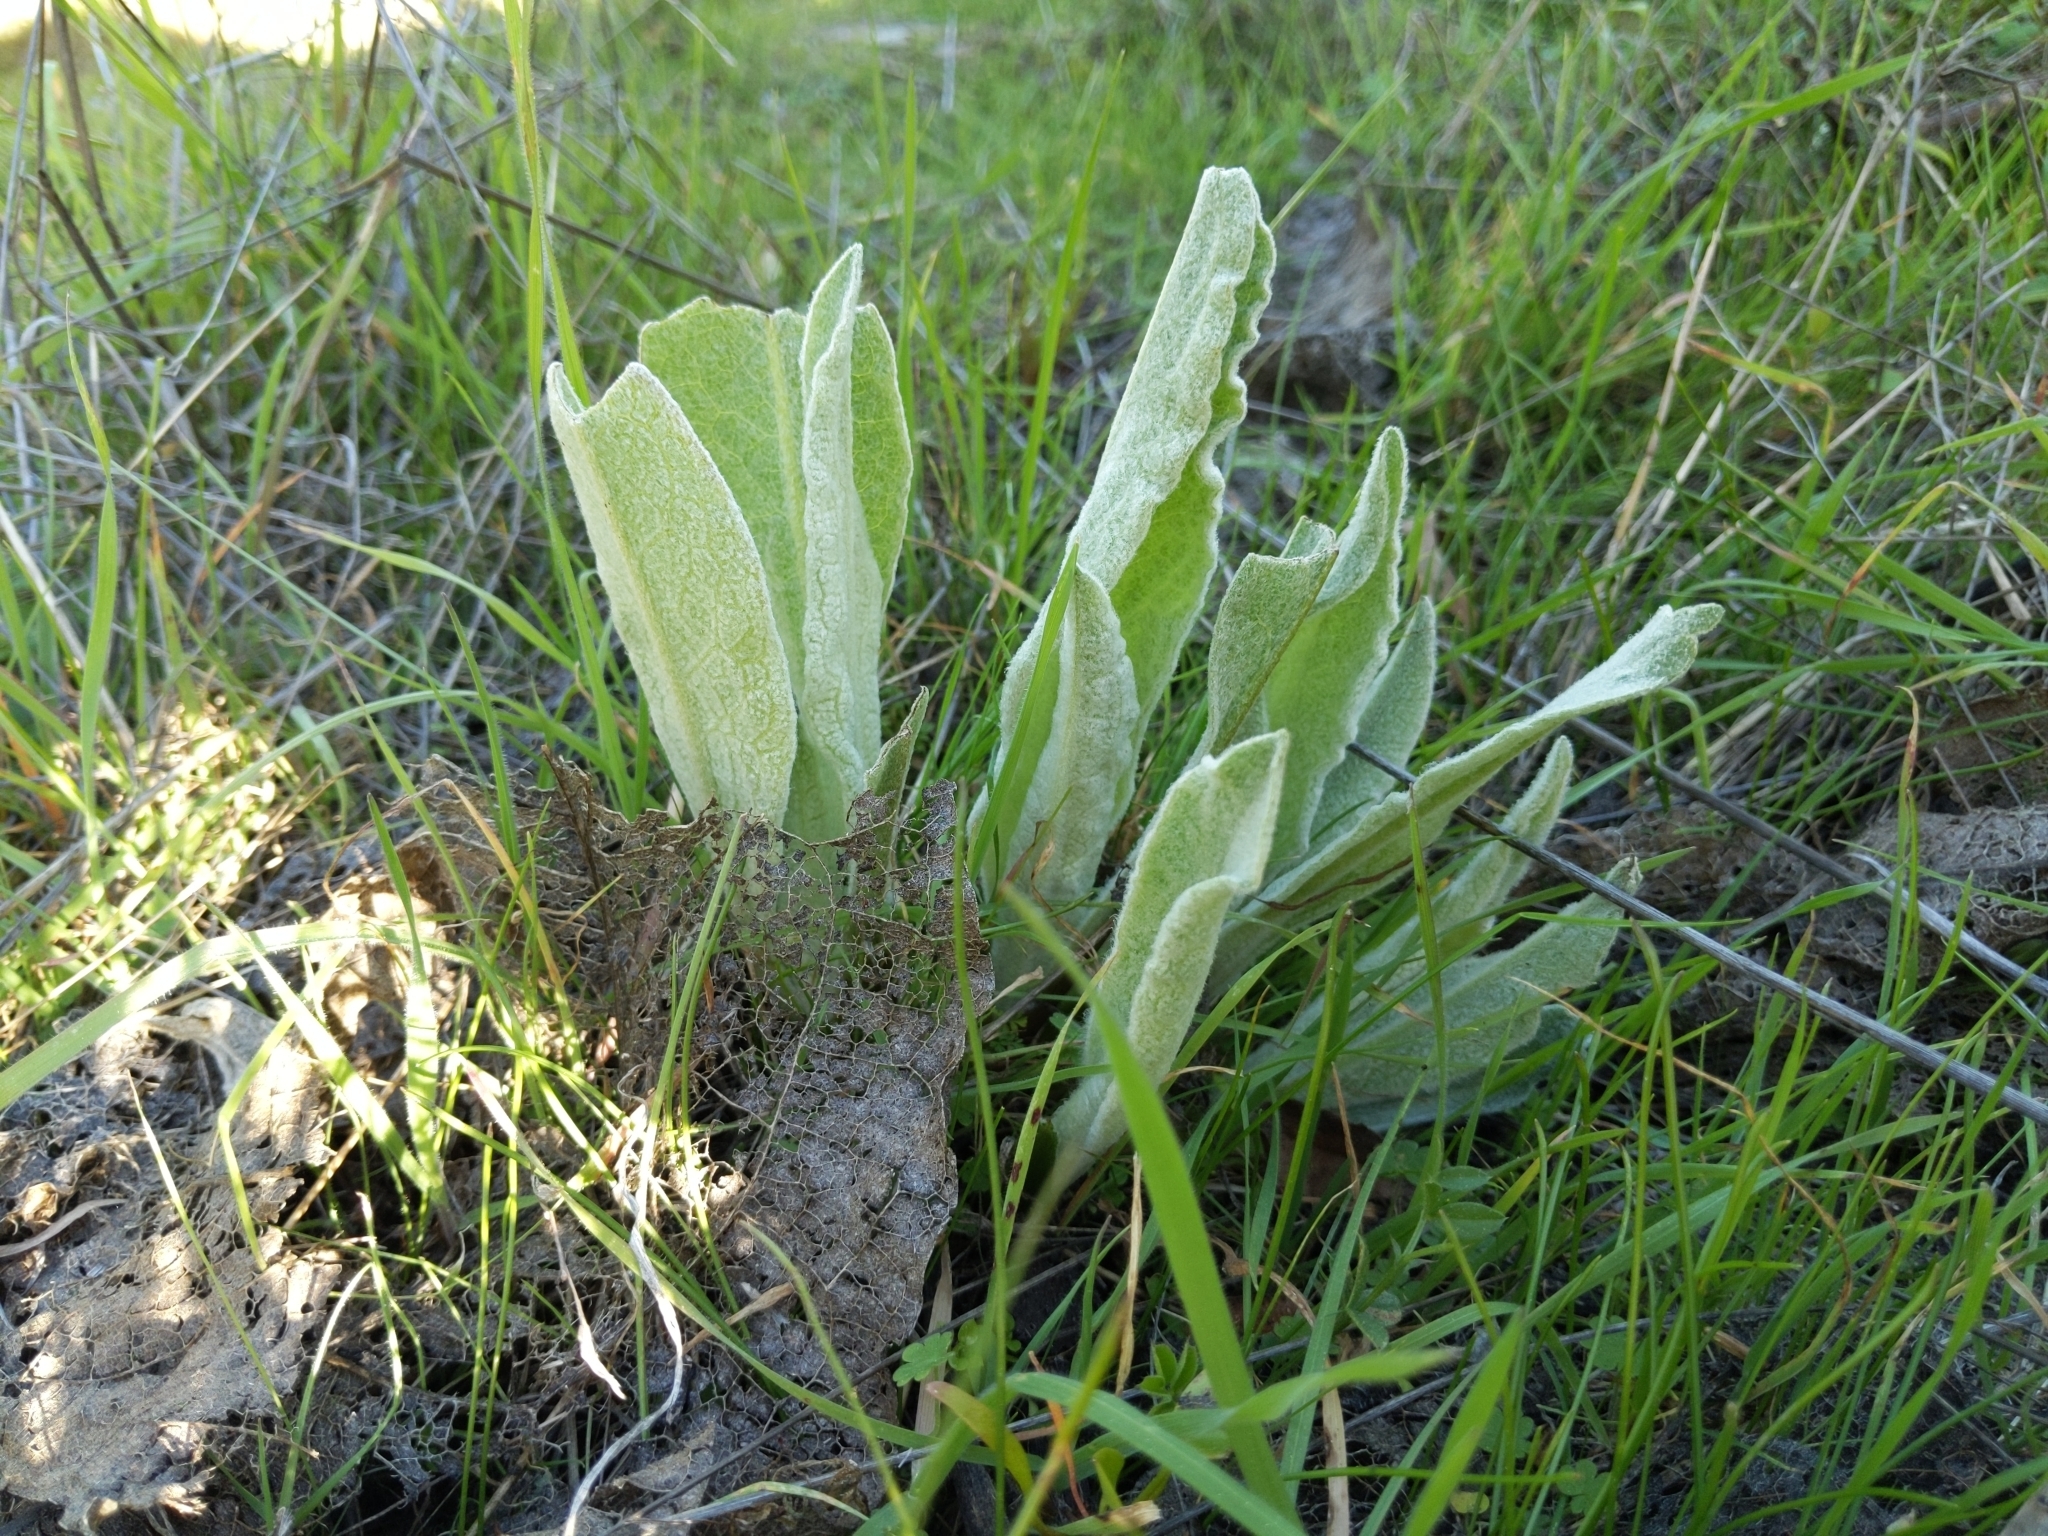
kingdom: Plantae
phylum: Tracheophyta
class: Magnoliopsida
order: Asterales
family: Asteraceae
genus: Wyethia
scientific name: Wyethia helenioides
